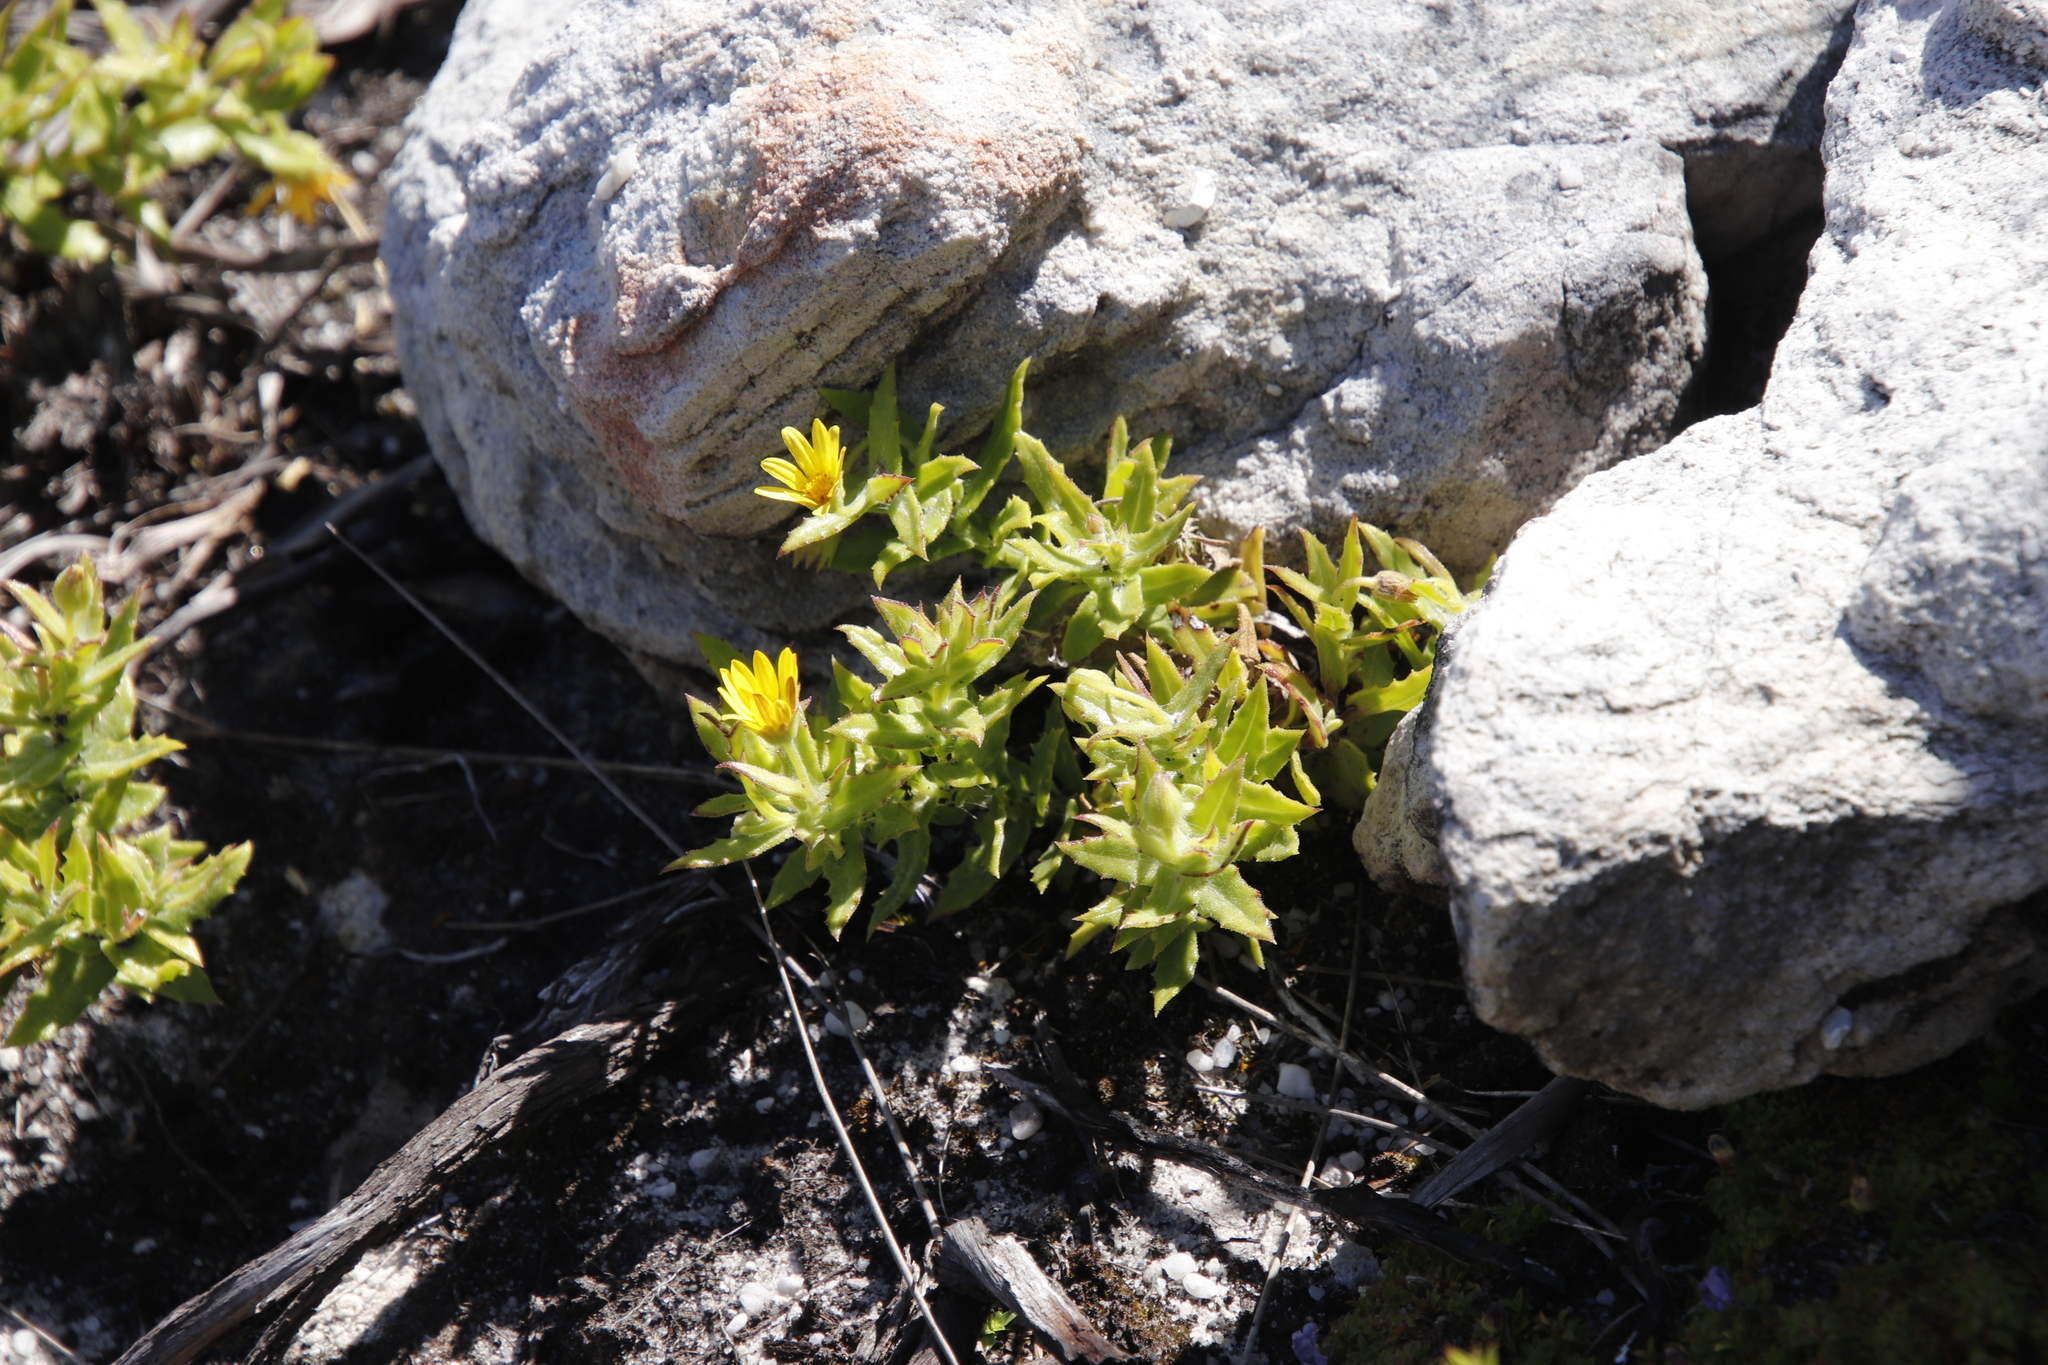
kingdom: Plantae
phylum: Tracheophyta
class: Magnoliopsida
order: Asterales
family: Asteraceae
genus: Osteospermum
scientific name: Osteospermum ilicifolium
